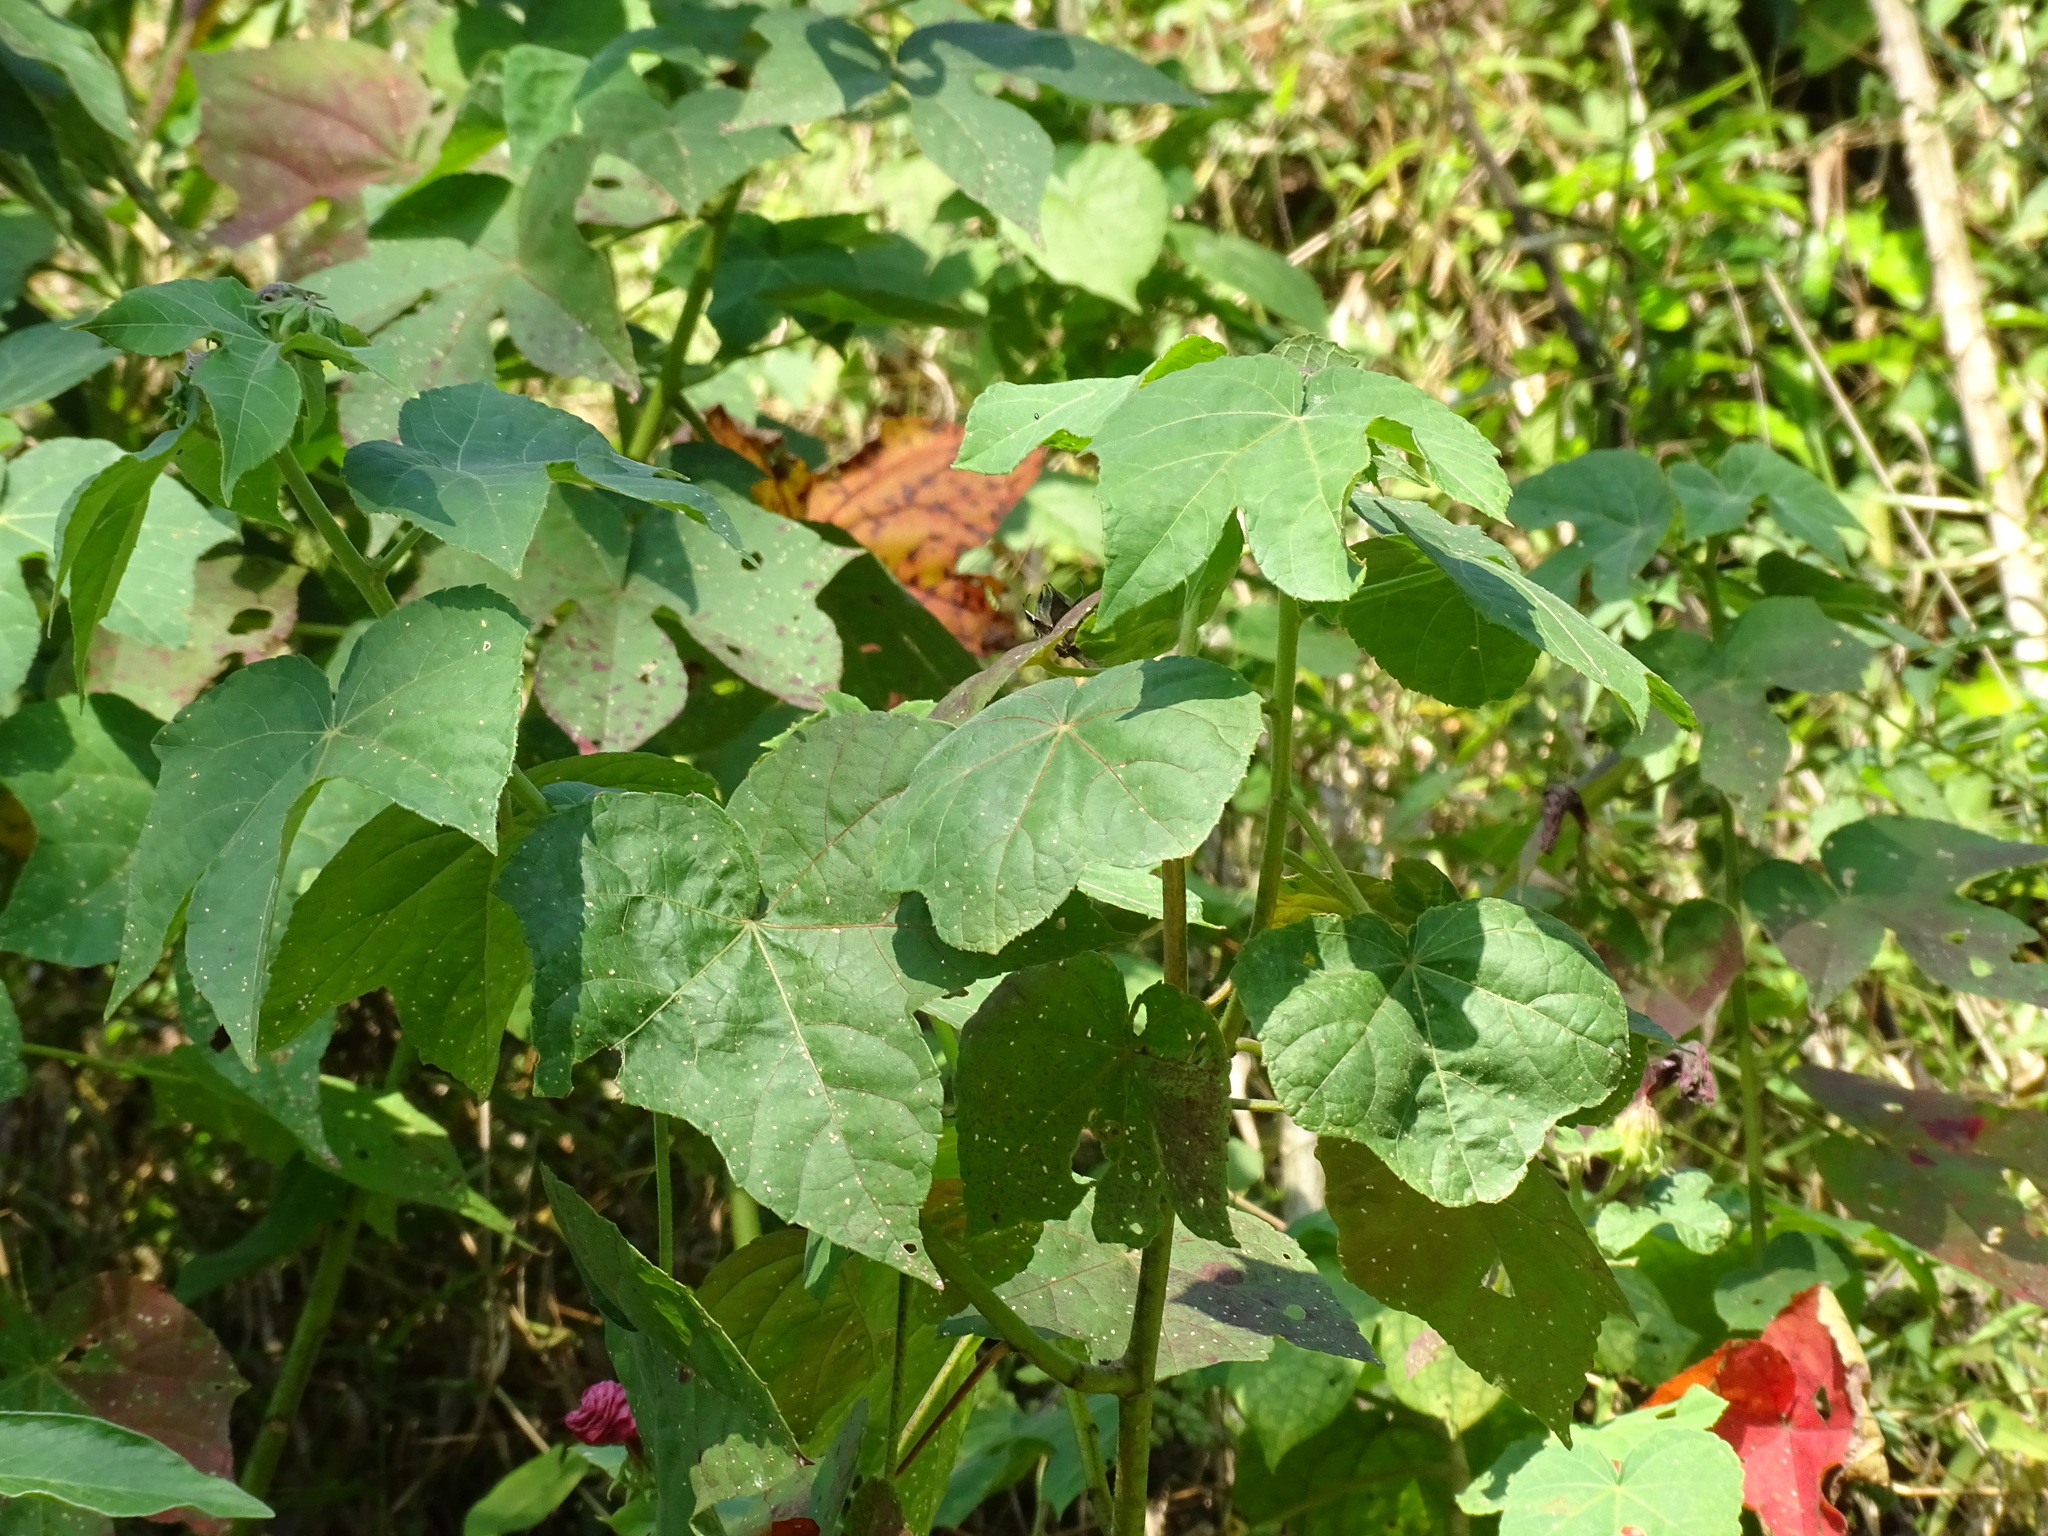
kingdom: Plantae
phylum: Tracheophyta
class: Magnoliopsida
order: Malvales
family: Malvaceae
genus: Hibiscus
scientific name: Hibiscus uncinellus
